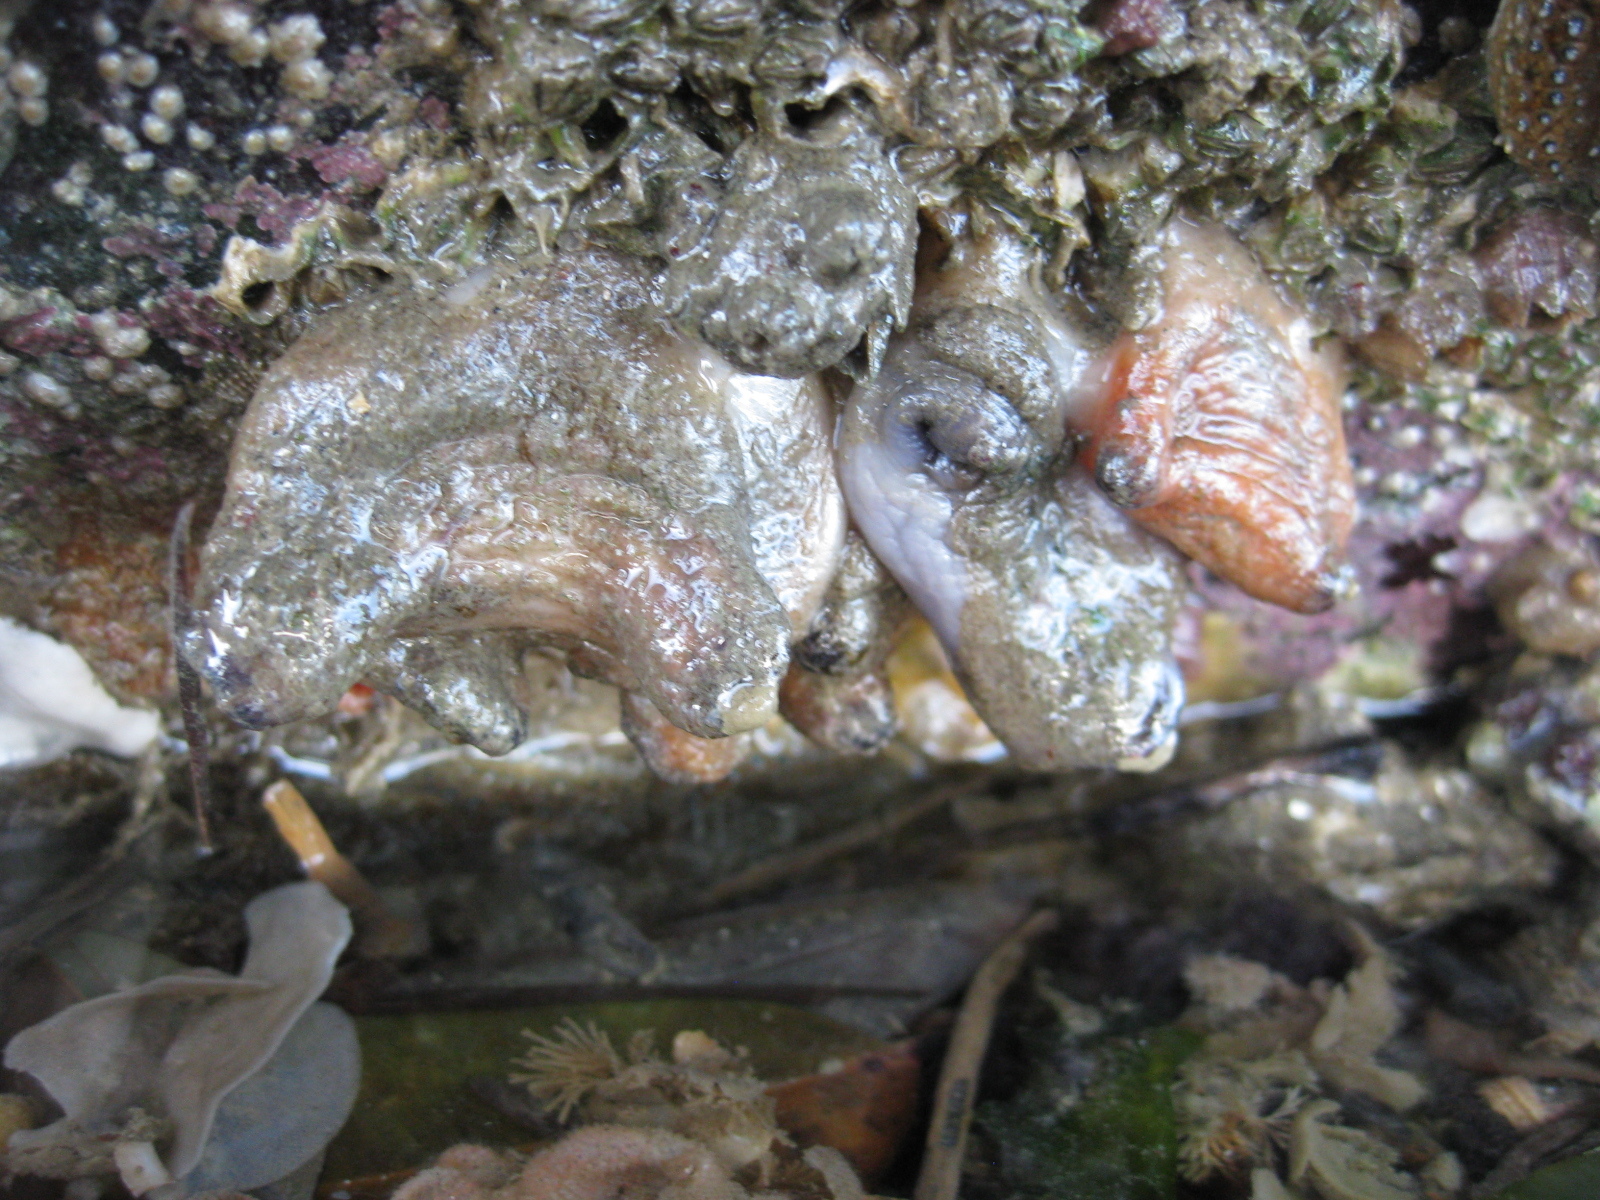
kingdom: Animalia
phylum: Chordata
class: Ascidiacea
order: Stolidobranchia
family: Styelidae
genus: Asterocarpa
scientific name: Asterocarpa coerulea
